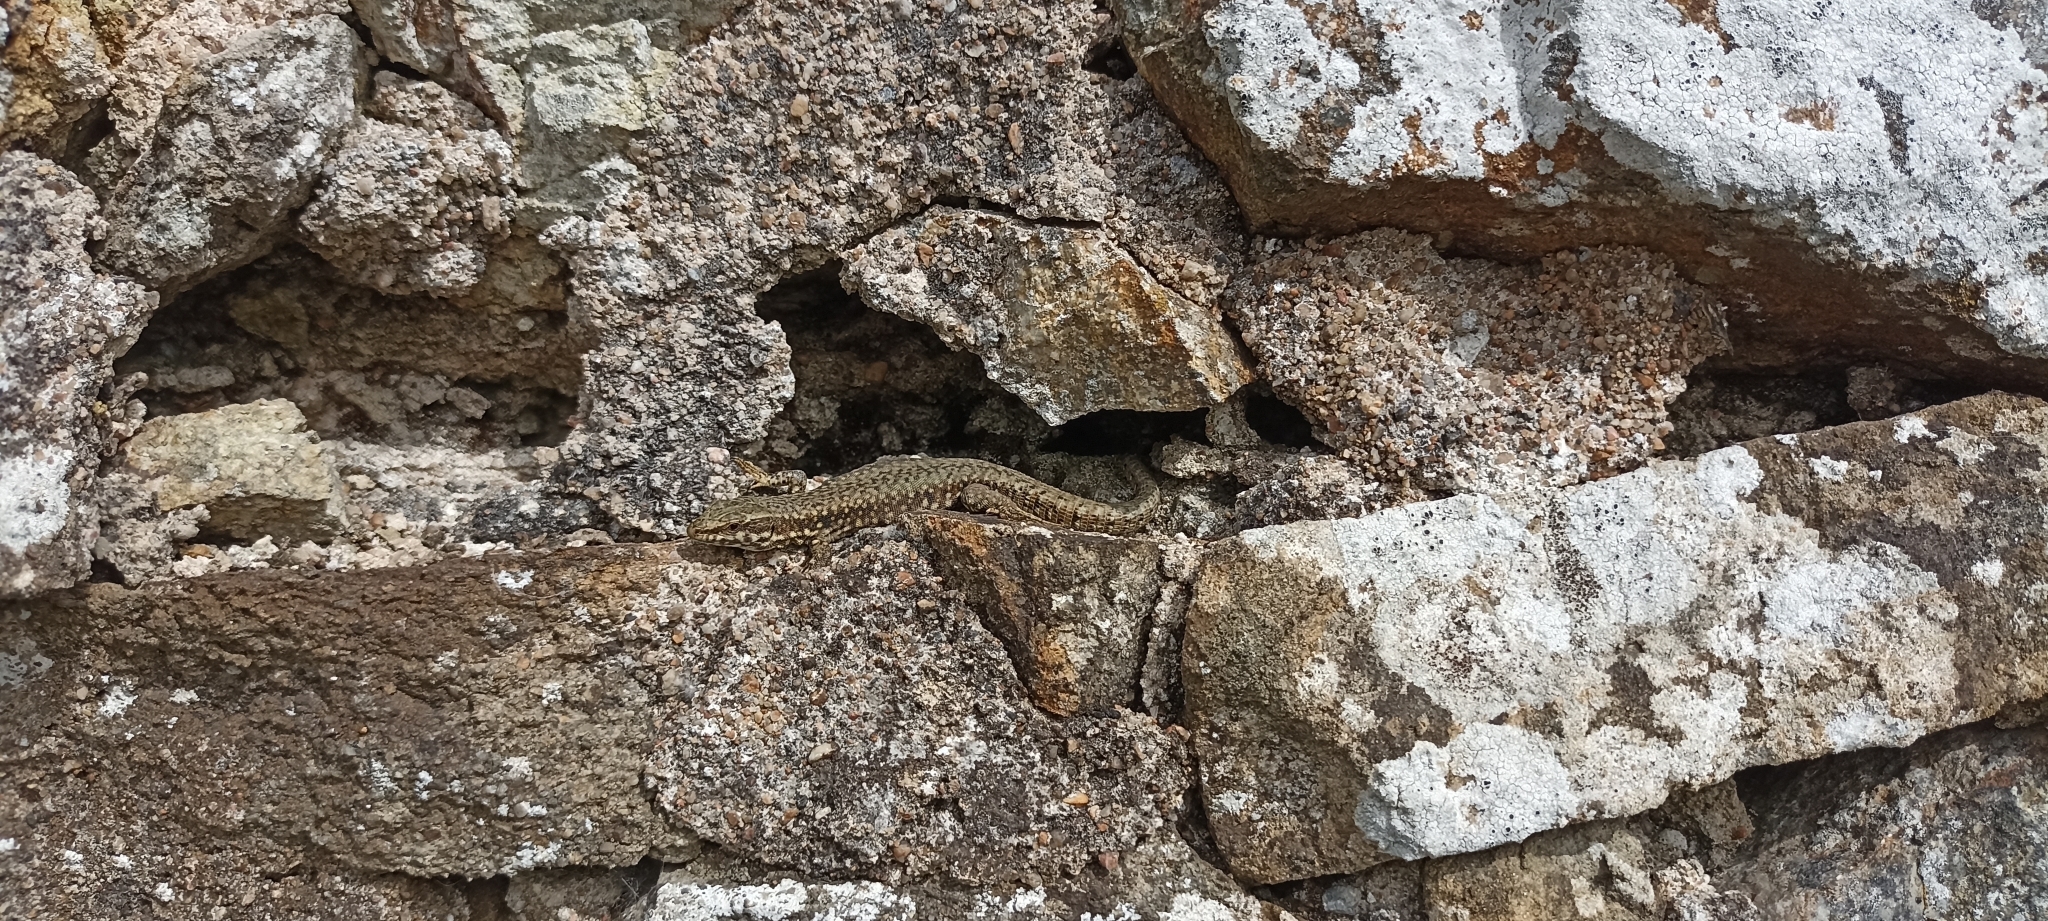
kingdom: Animalia
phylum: Chordata
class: Squamata
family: Lacertidae
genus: Podarcis
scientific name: Podarcis muralis
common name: Common wall lizard
